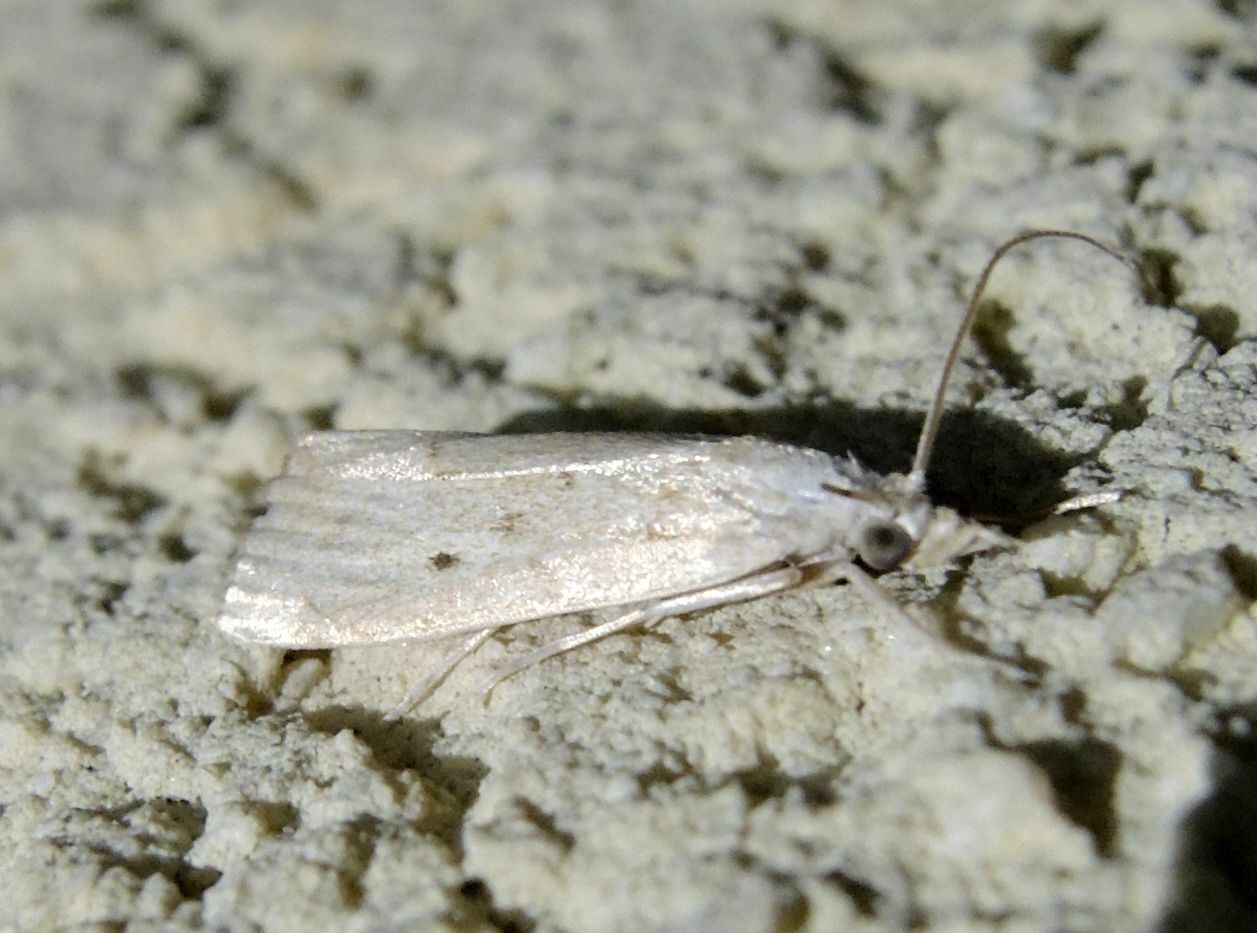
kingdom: Animalia
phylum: Arthropoda
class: Insecta
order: Lepidoptera
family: Crambidae
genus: Calamotropha
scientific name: Calamotropha paludella
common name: Bulrush veneer
